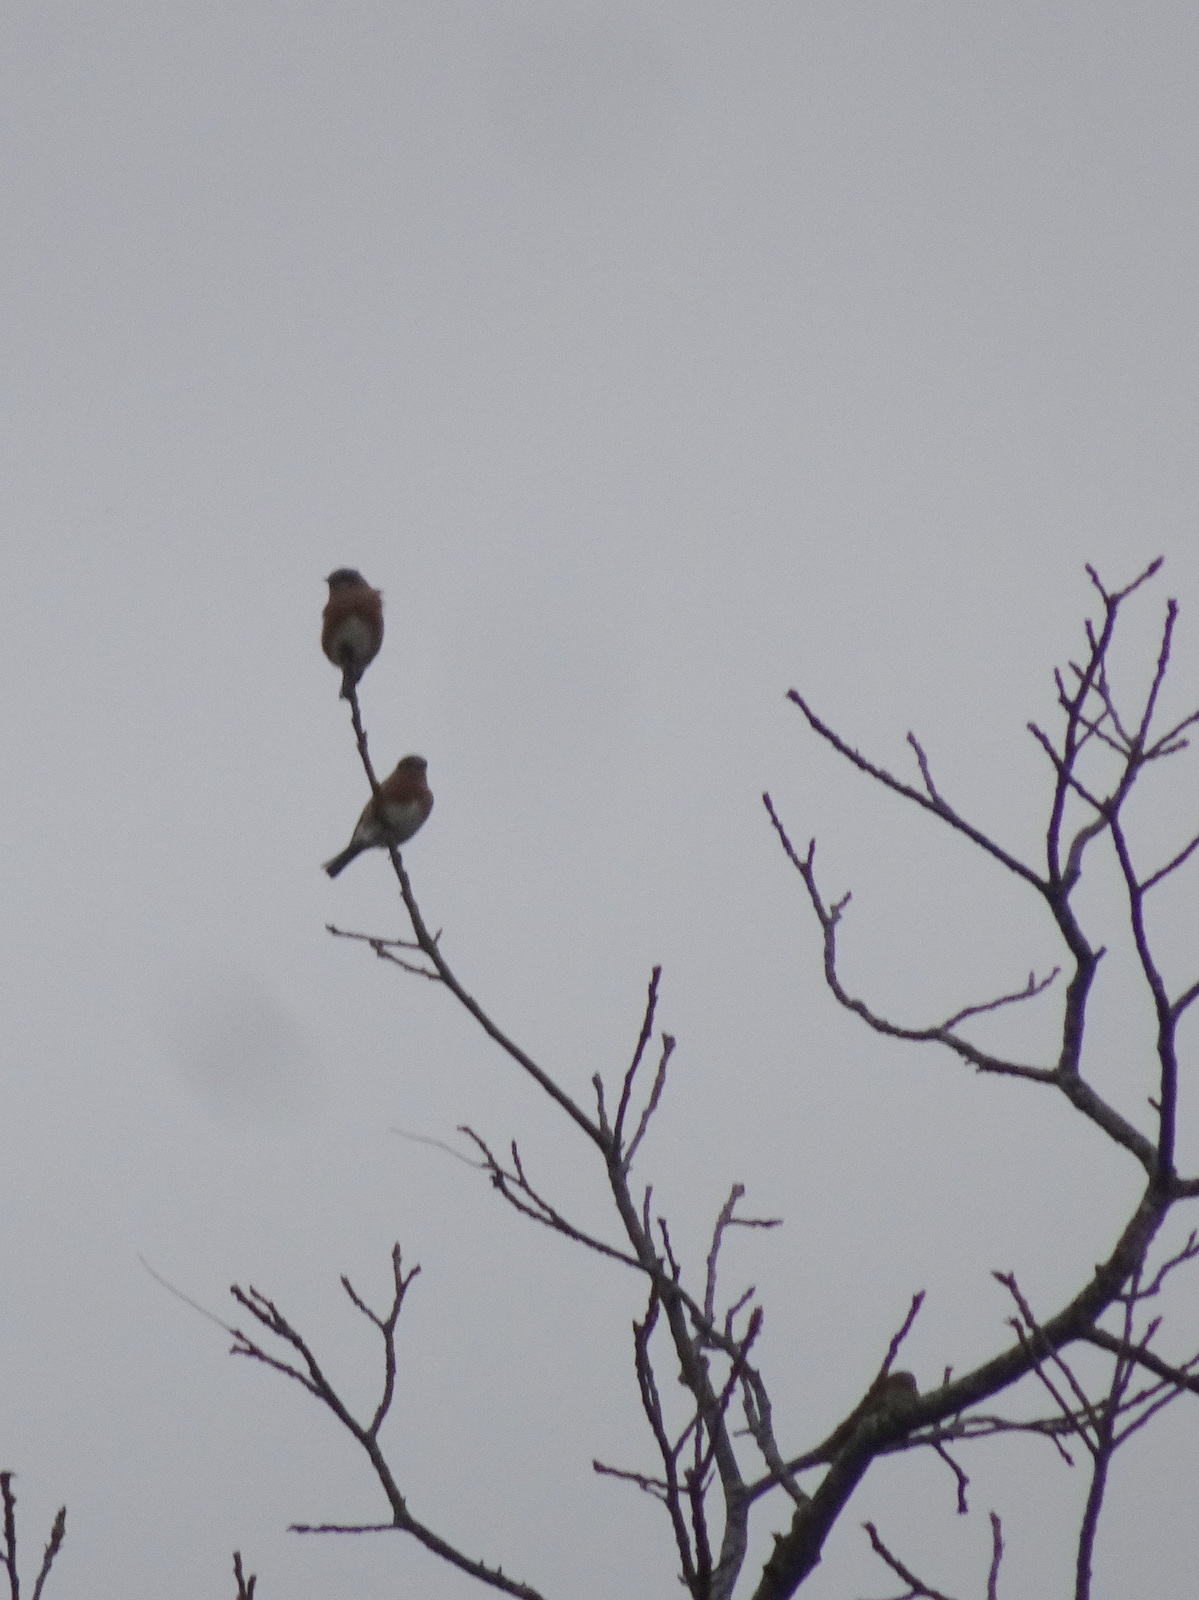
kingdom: Animalia
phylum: Chordata
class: Aves
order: Passeriformes
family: Turdidae
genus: Sialia
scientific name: Sialia sialis
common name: Eastern bluebird
